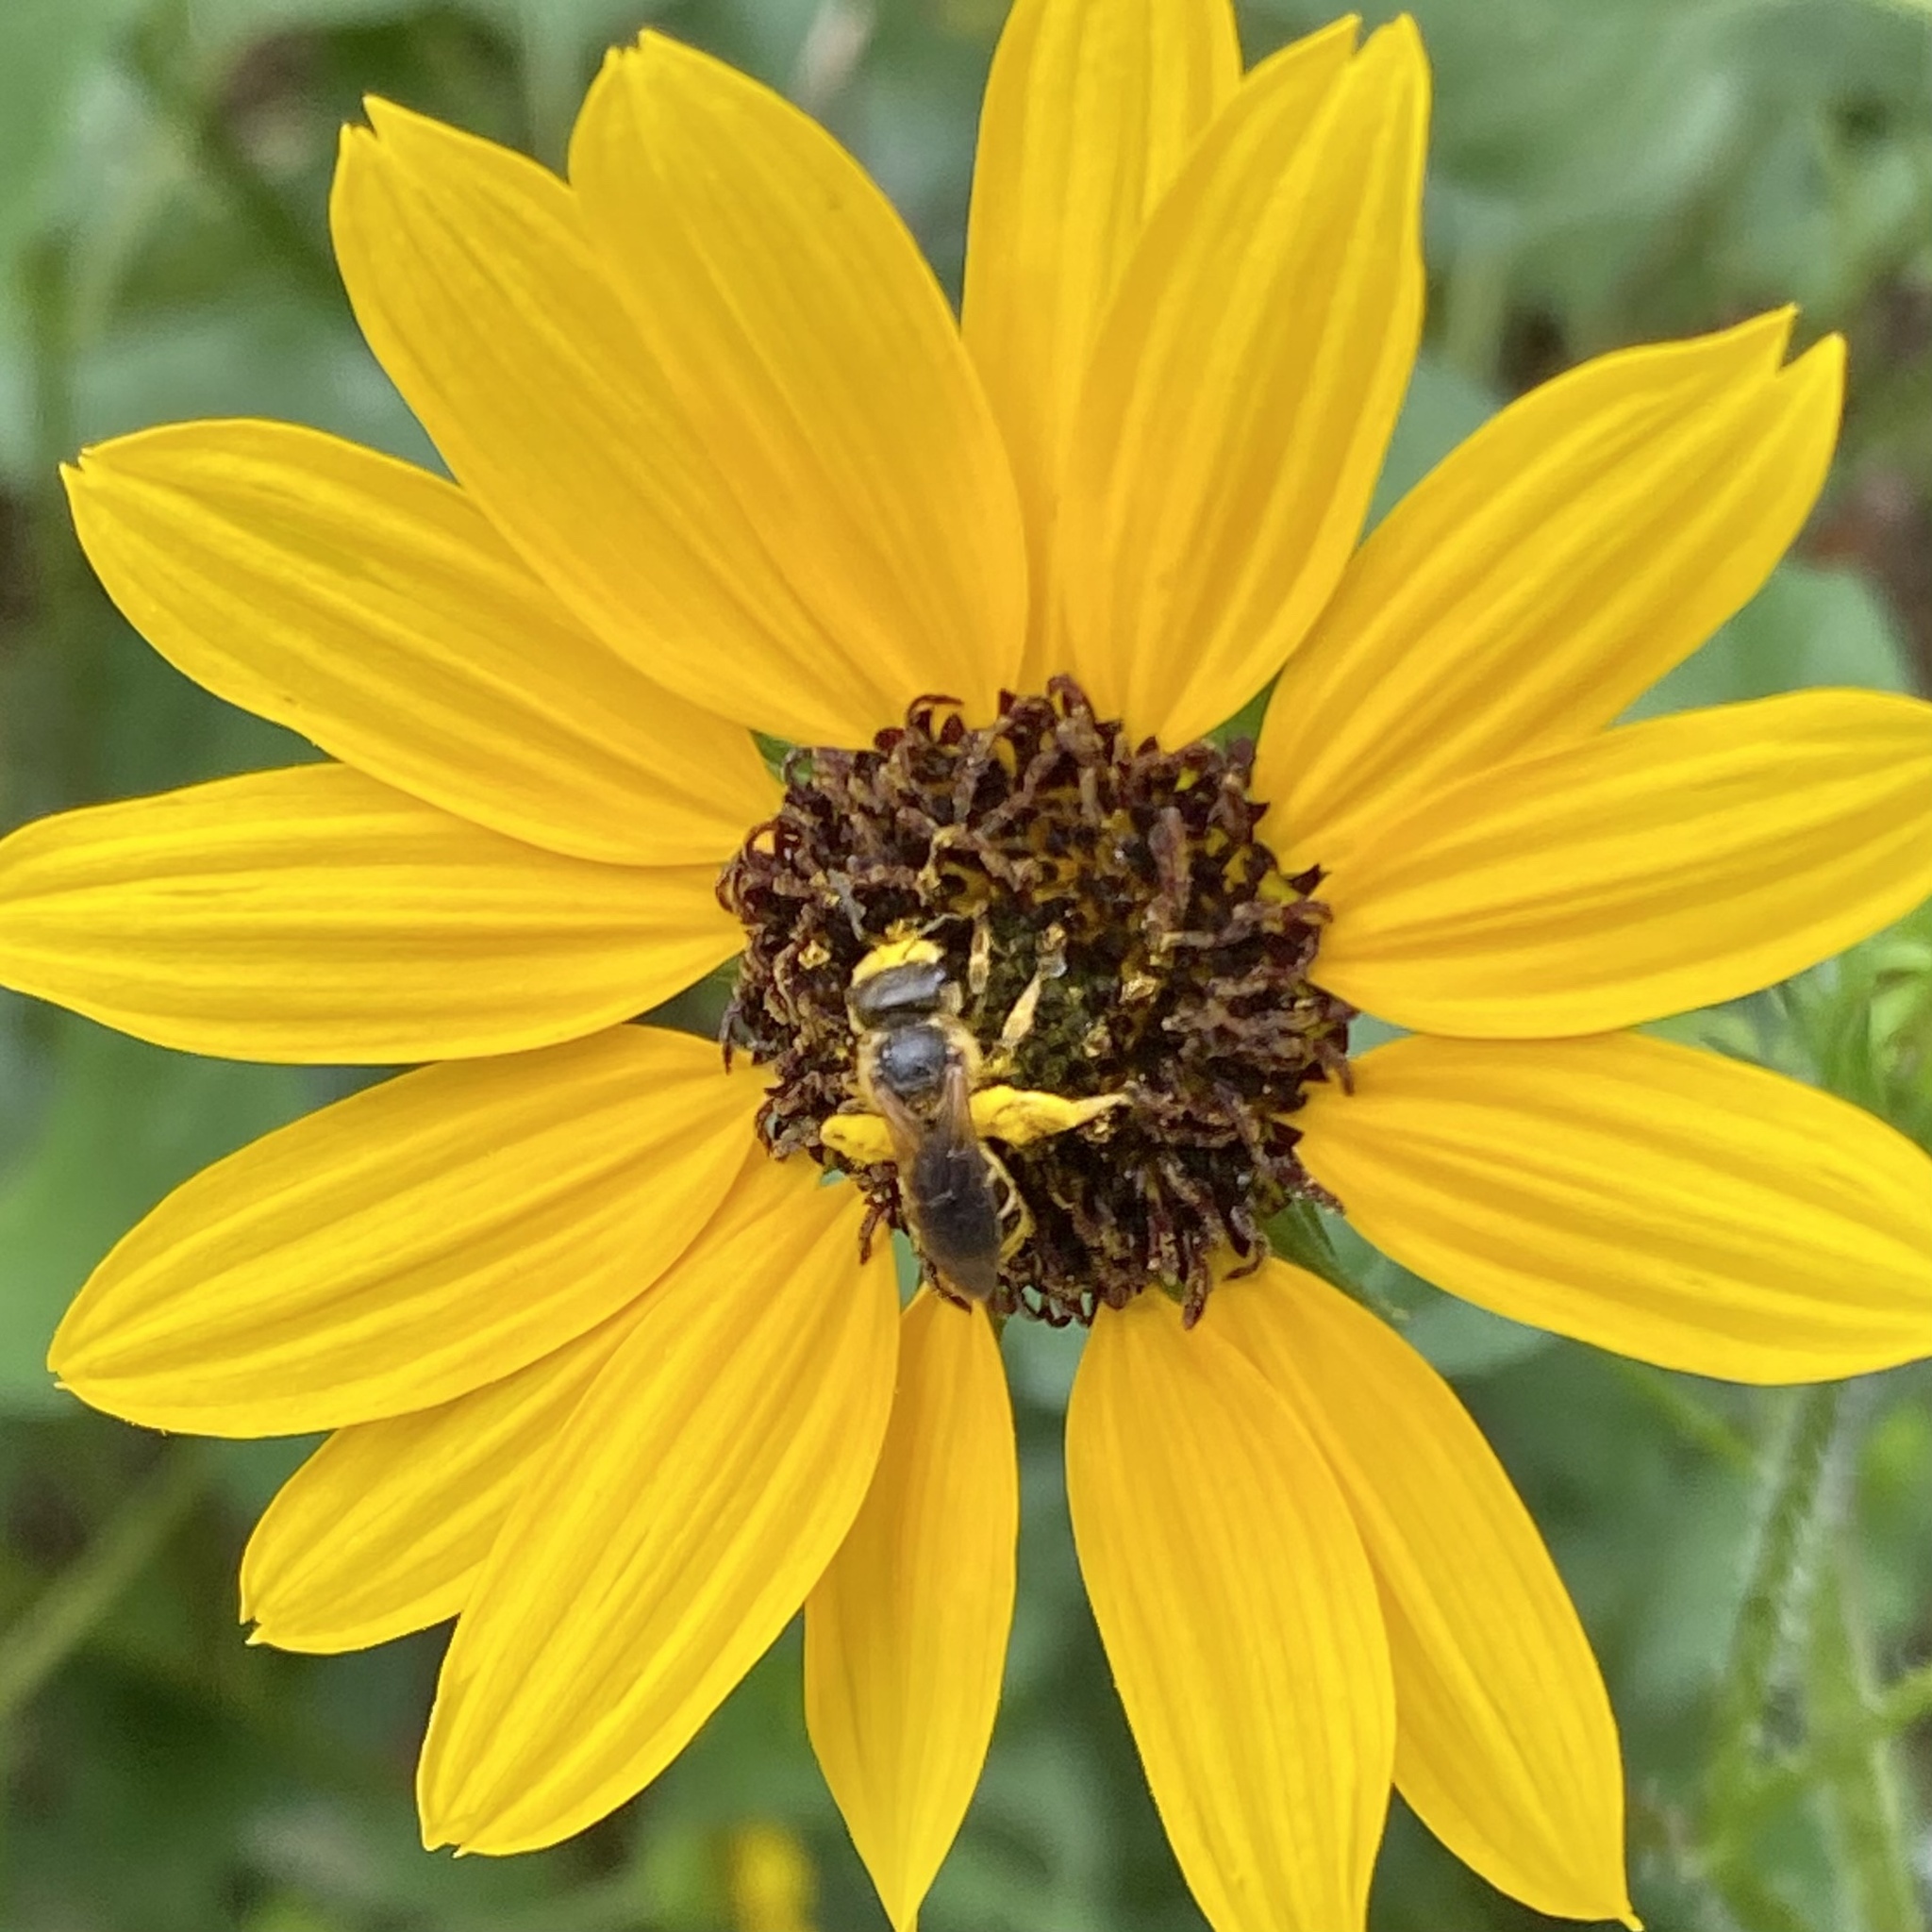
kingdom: Animalia
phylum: Arthropoda
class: Insecta
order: Hymenoptera
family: Halictidae
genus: Halictus
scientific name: Halictus poeyi
